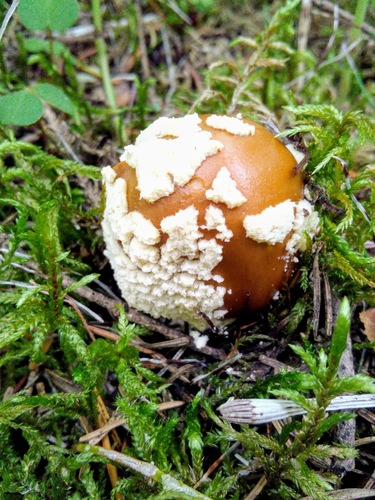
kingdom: Fungi
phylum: Basidiomycota
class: Agaricomycetes
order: Agaricales
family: Amanitaceae
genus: Amanita
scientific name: Amanita regalis
